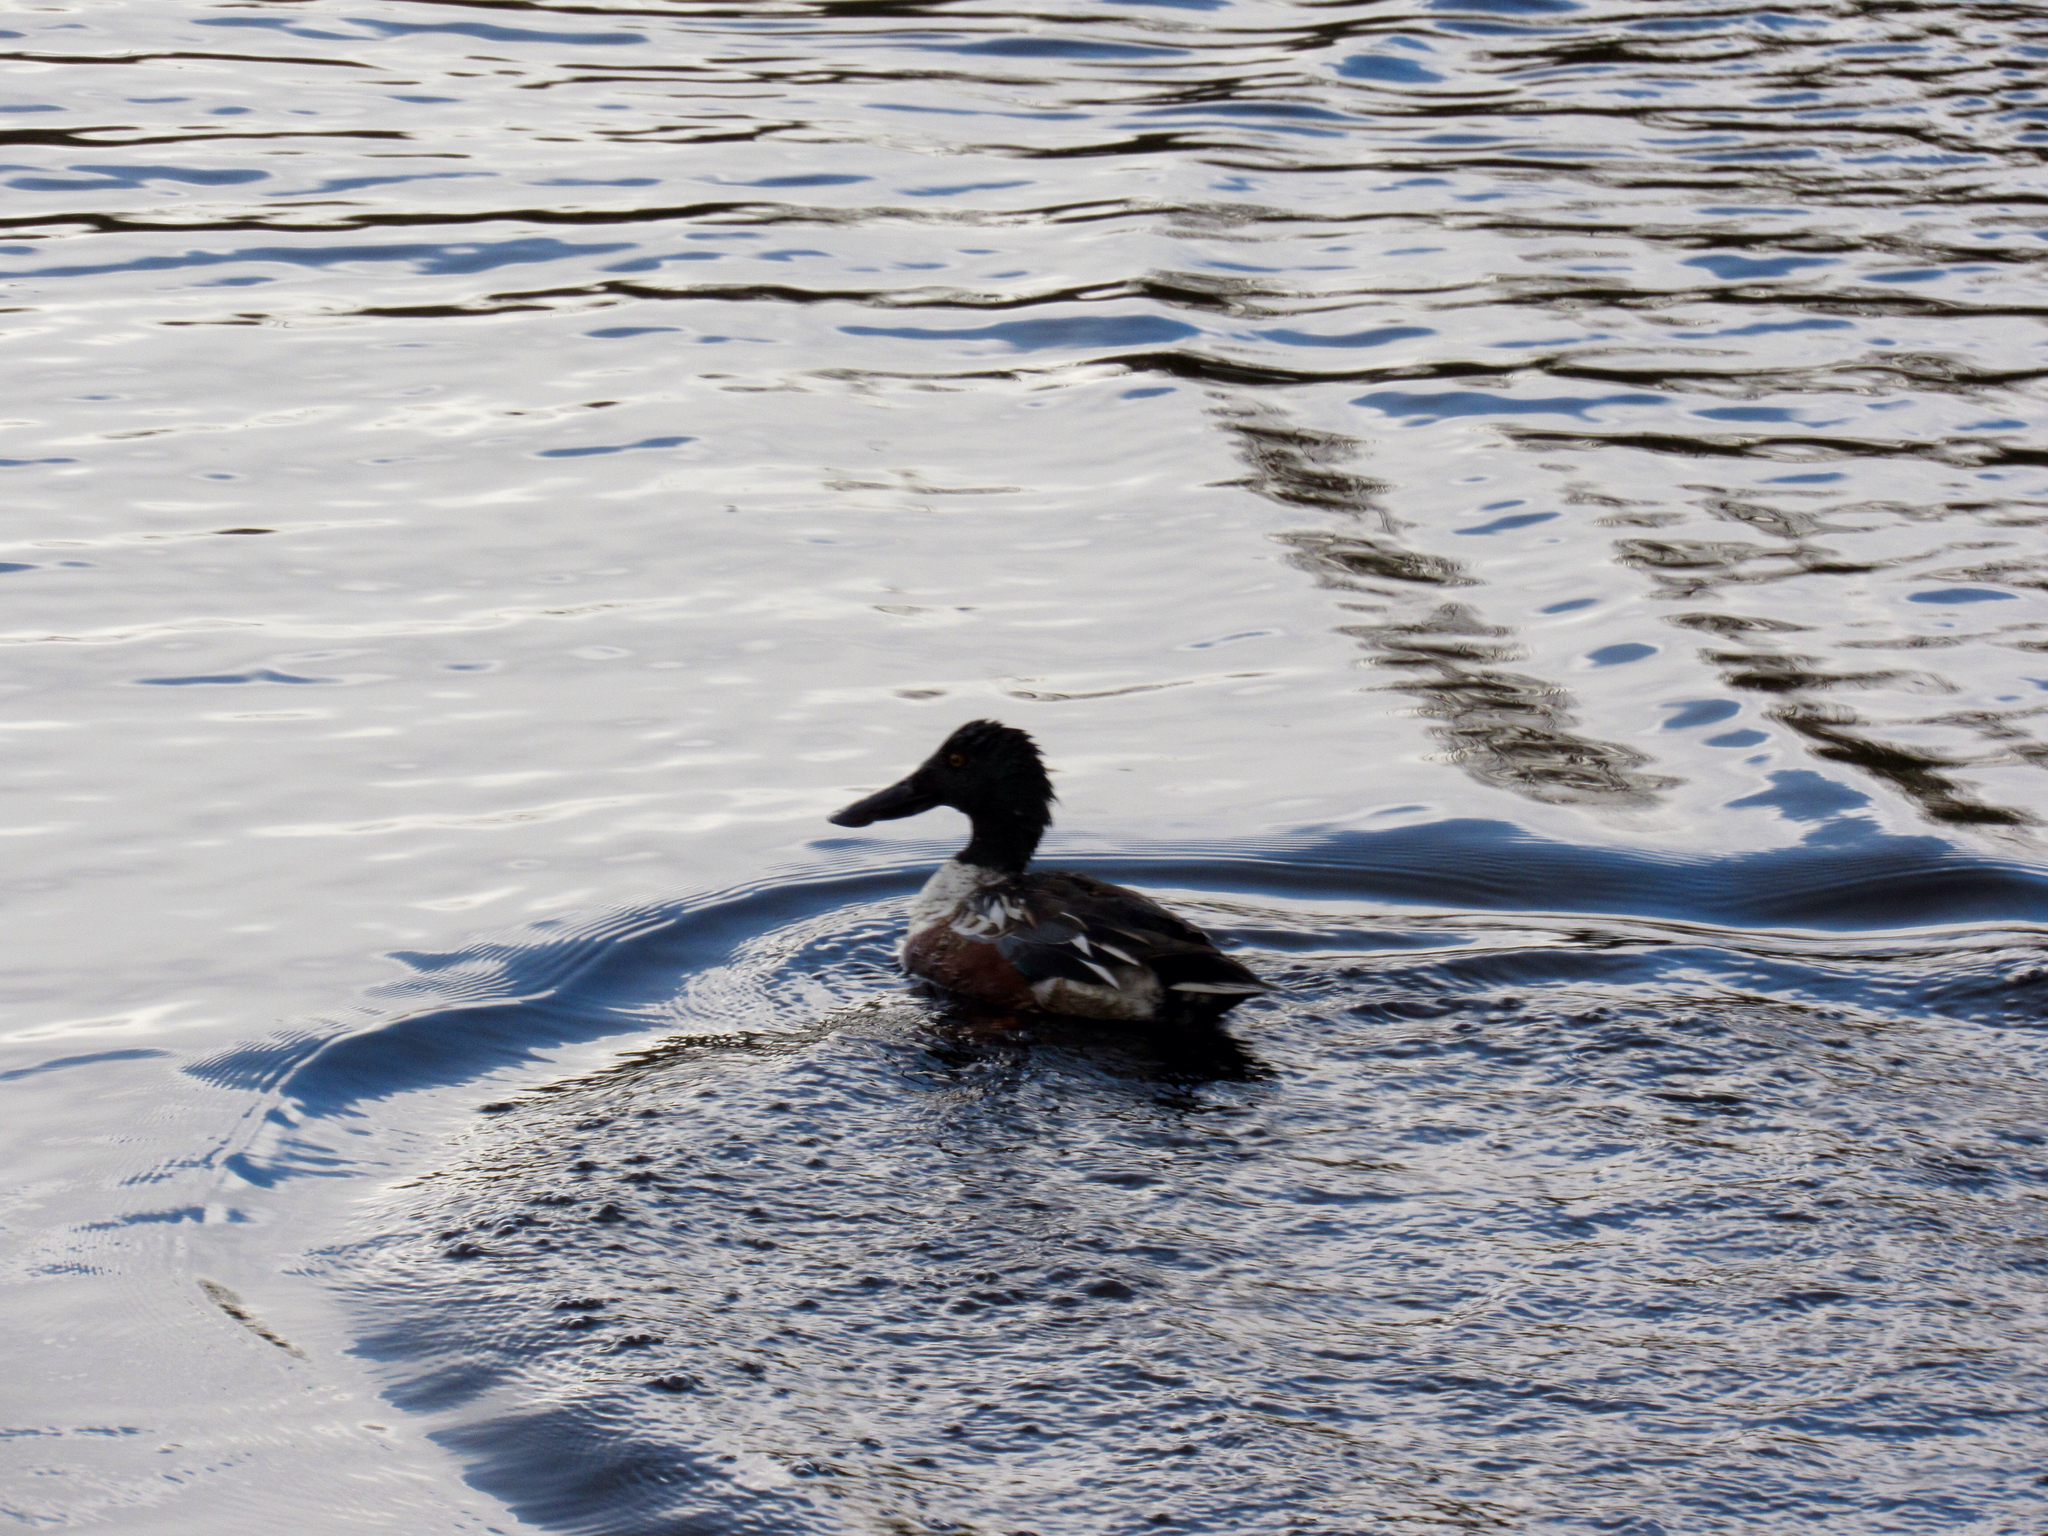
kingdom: Animalia
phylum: Chordata
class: Aves
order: Anseriformes
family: Anatidae
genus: Spatula
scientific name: Spatula clypeata
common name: Northern shoveler
